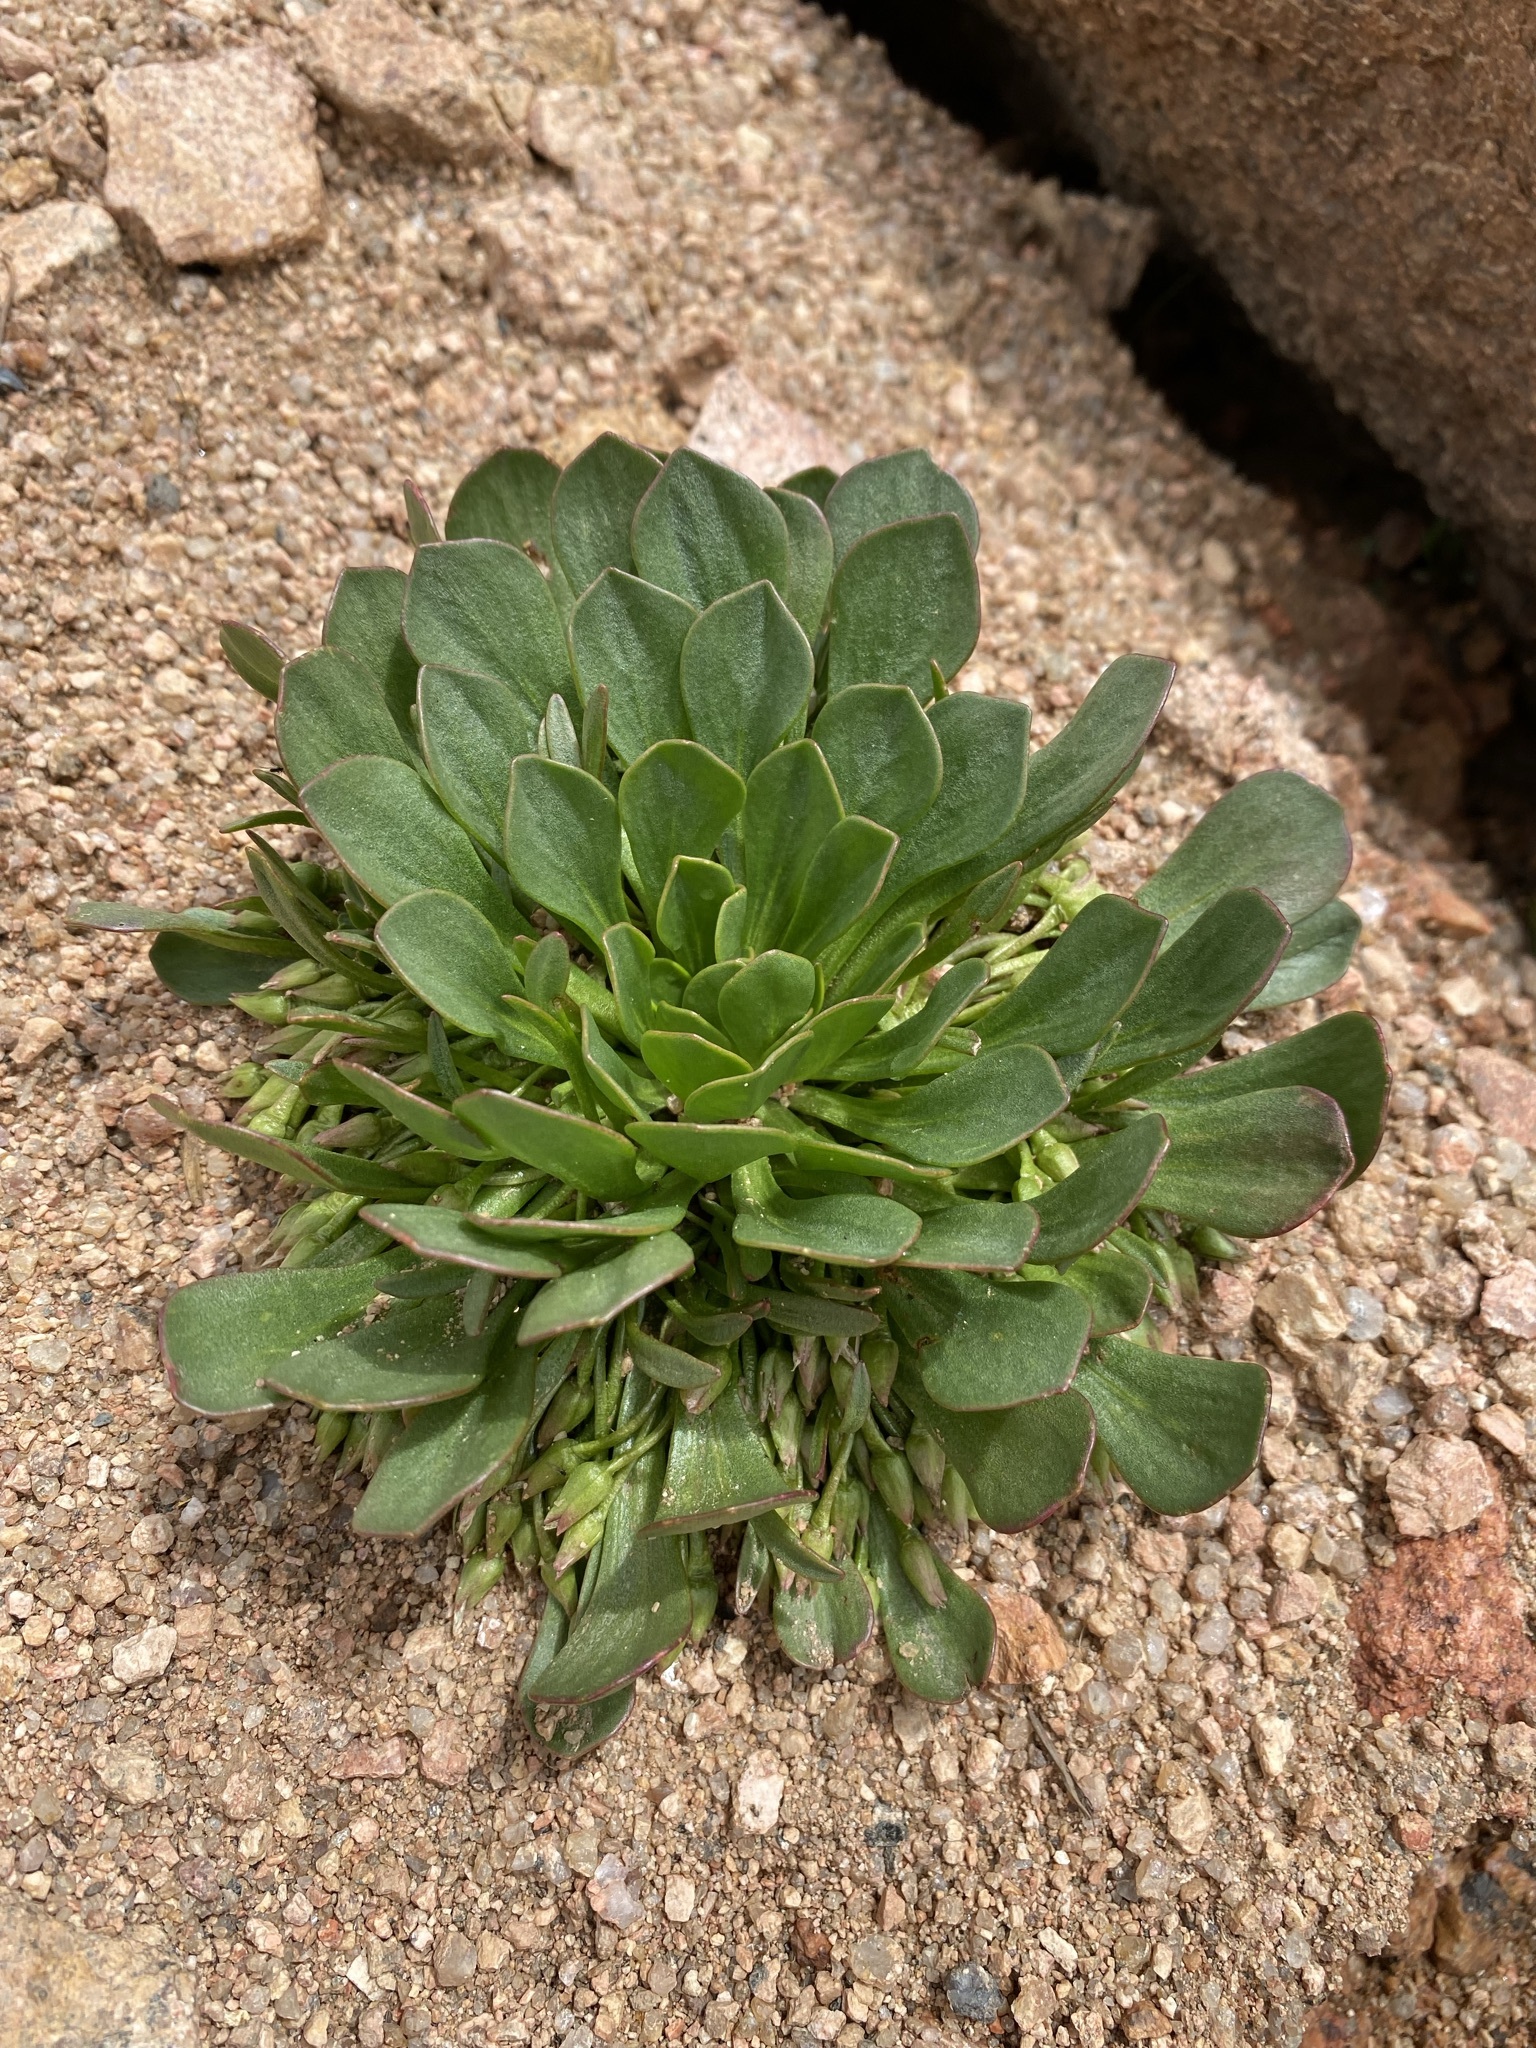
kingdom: Plantae
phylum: Tracheophyta
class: Magnoliopsida
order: Caryophyllales
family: Montiaceae
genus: Claytonia
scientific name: Claytonia megarhiza
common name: Alpine spring beauty
